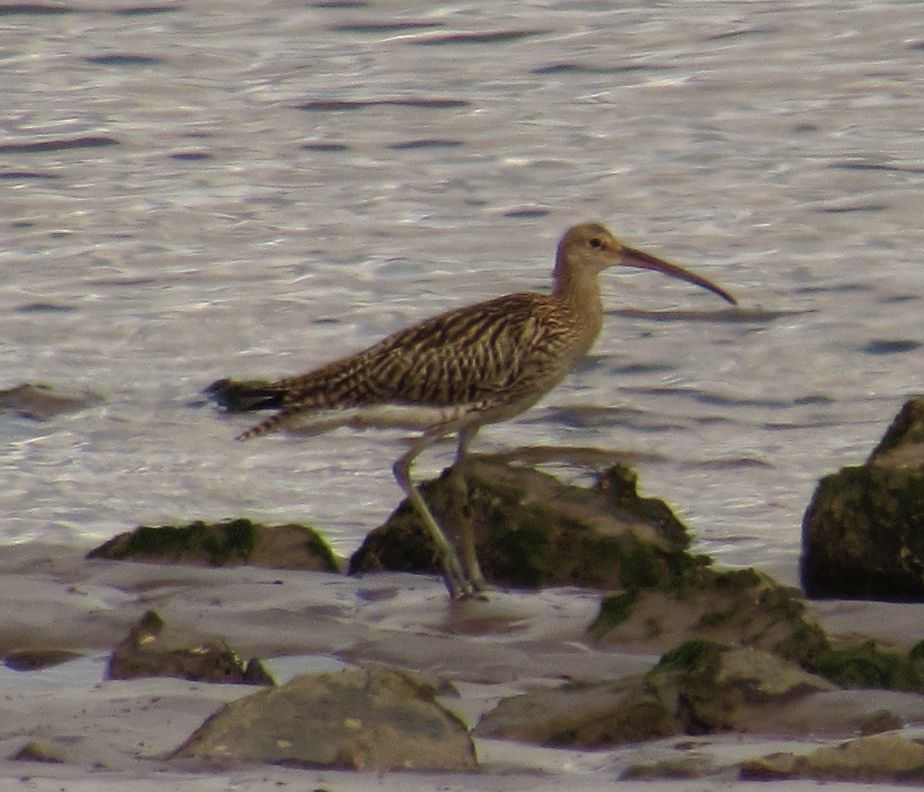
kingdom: Animalia
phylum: Chordata
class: Aves
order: Charadriiformes
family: Scolopacidae
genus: Numenius
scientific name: Numenius arquata
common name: Eurasian curlew
